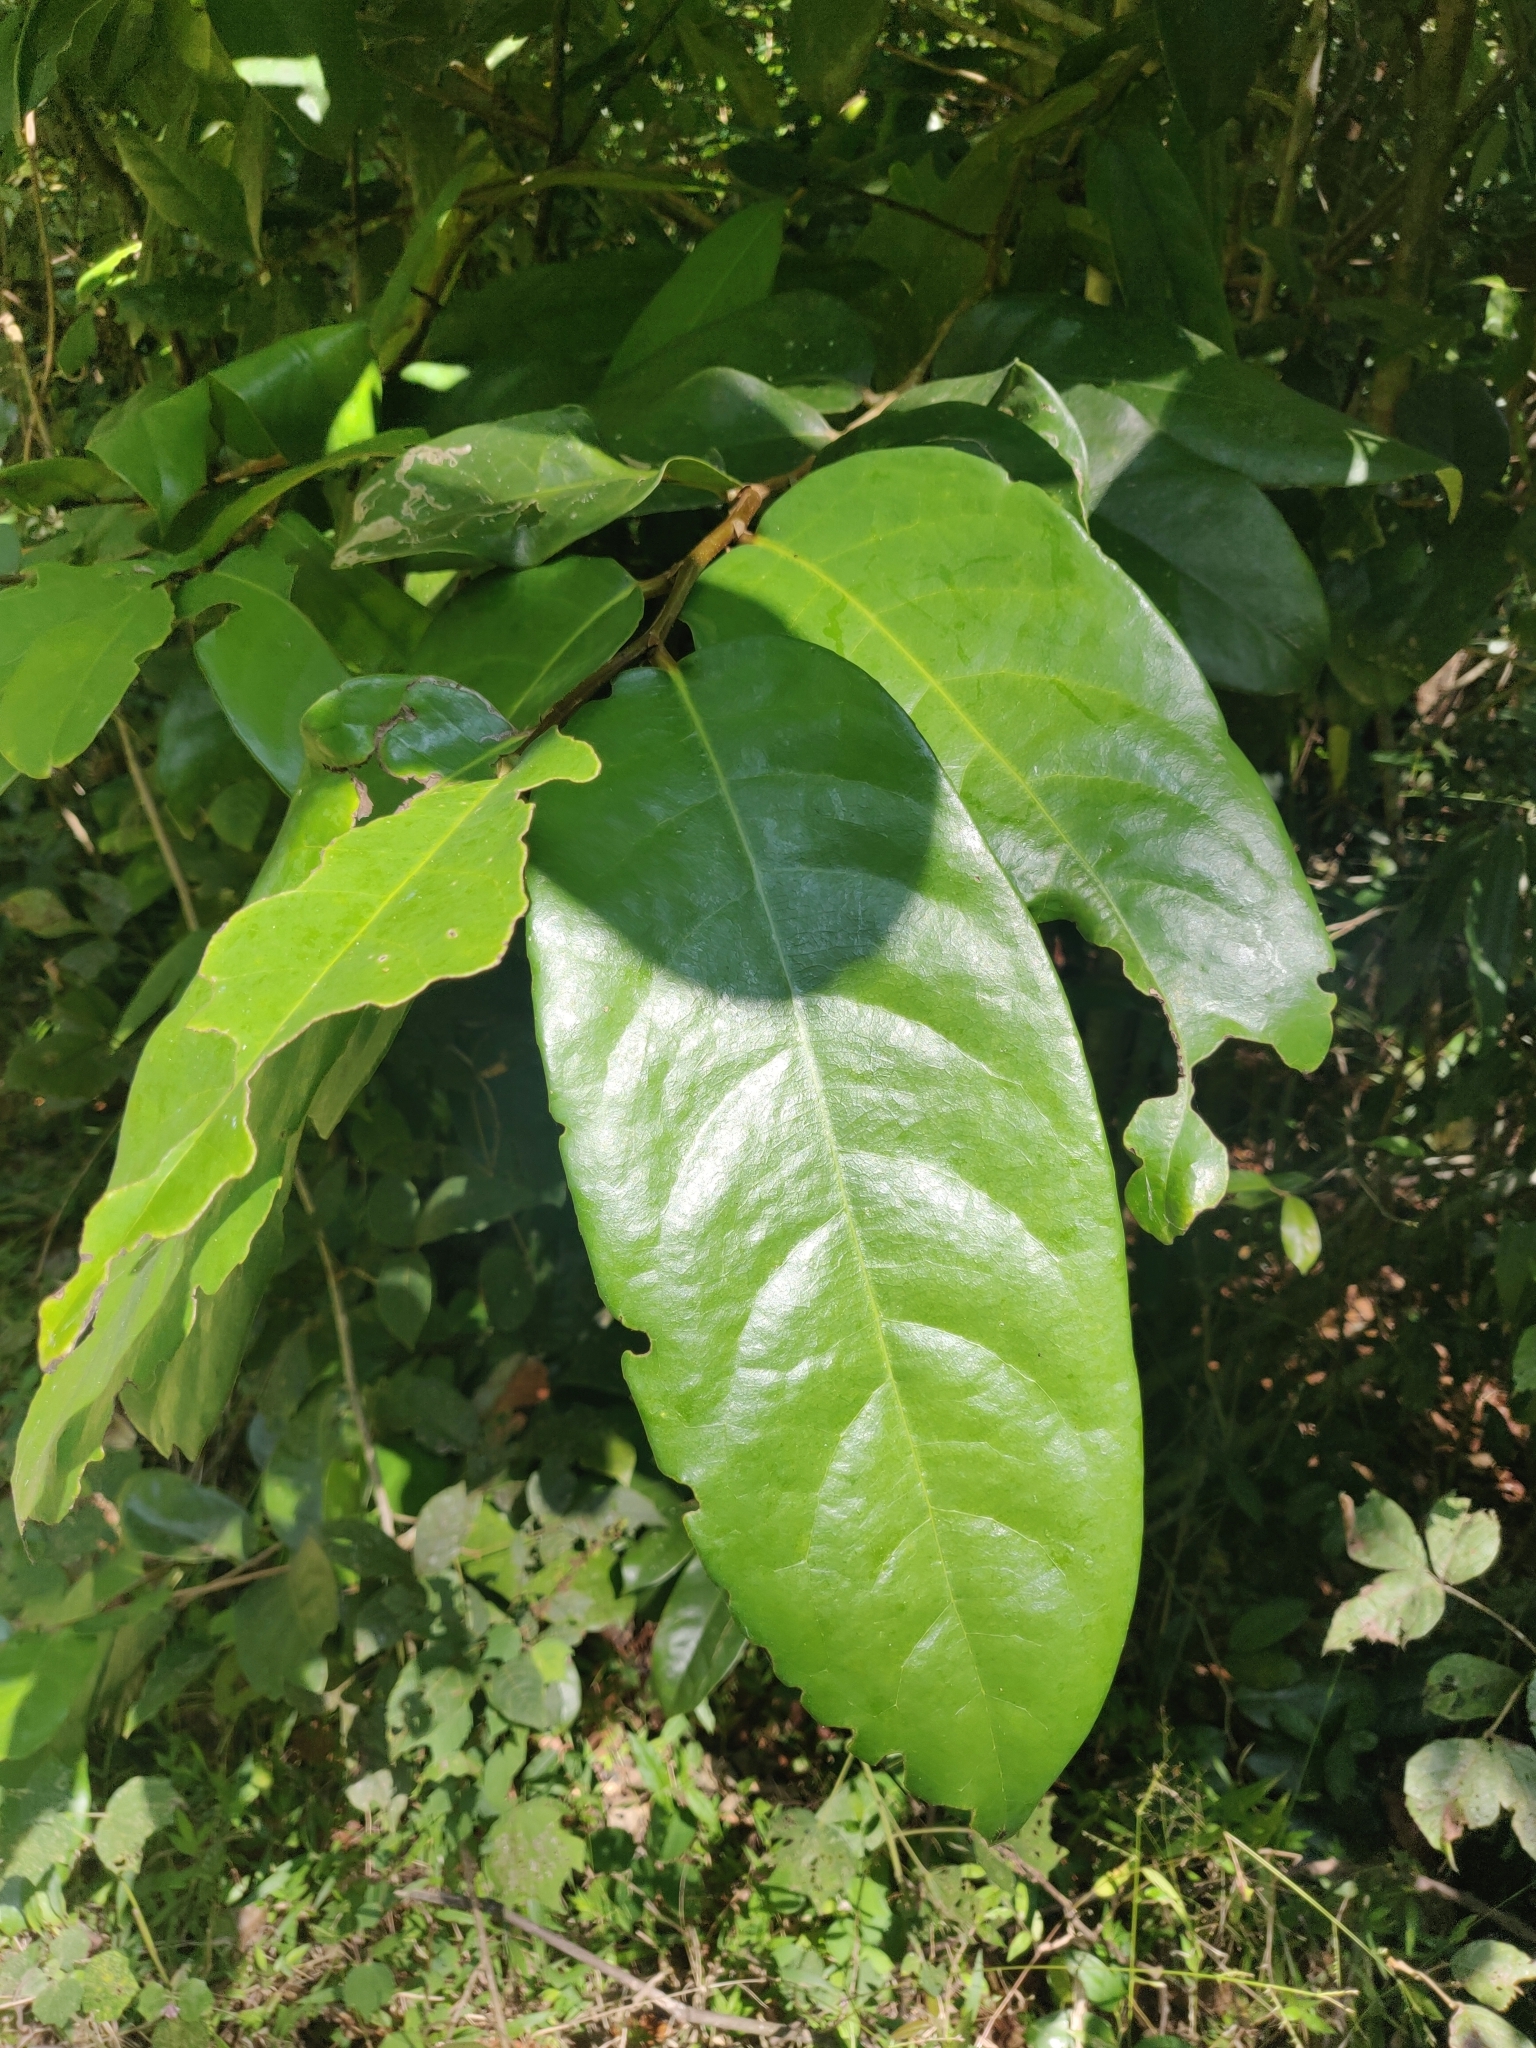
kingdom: Plantae
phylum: Tracheophyta
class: Magnoliopsida
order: Malpighiales
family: Putranjivaceae
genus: Drypetes
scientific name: Drypetes oblongifolia
